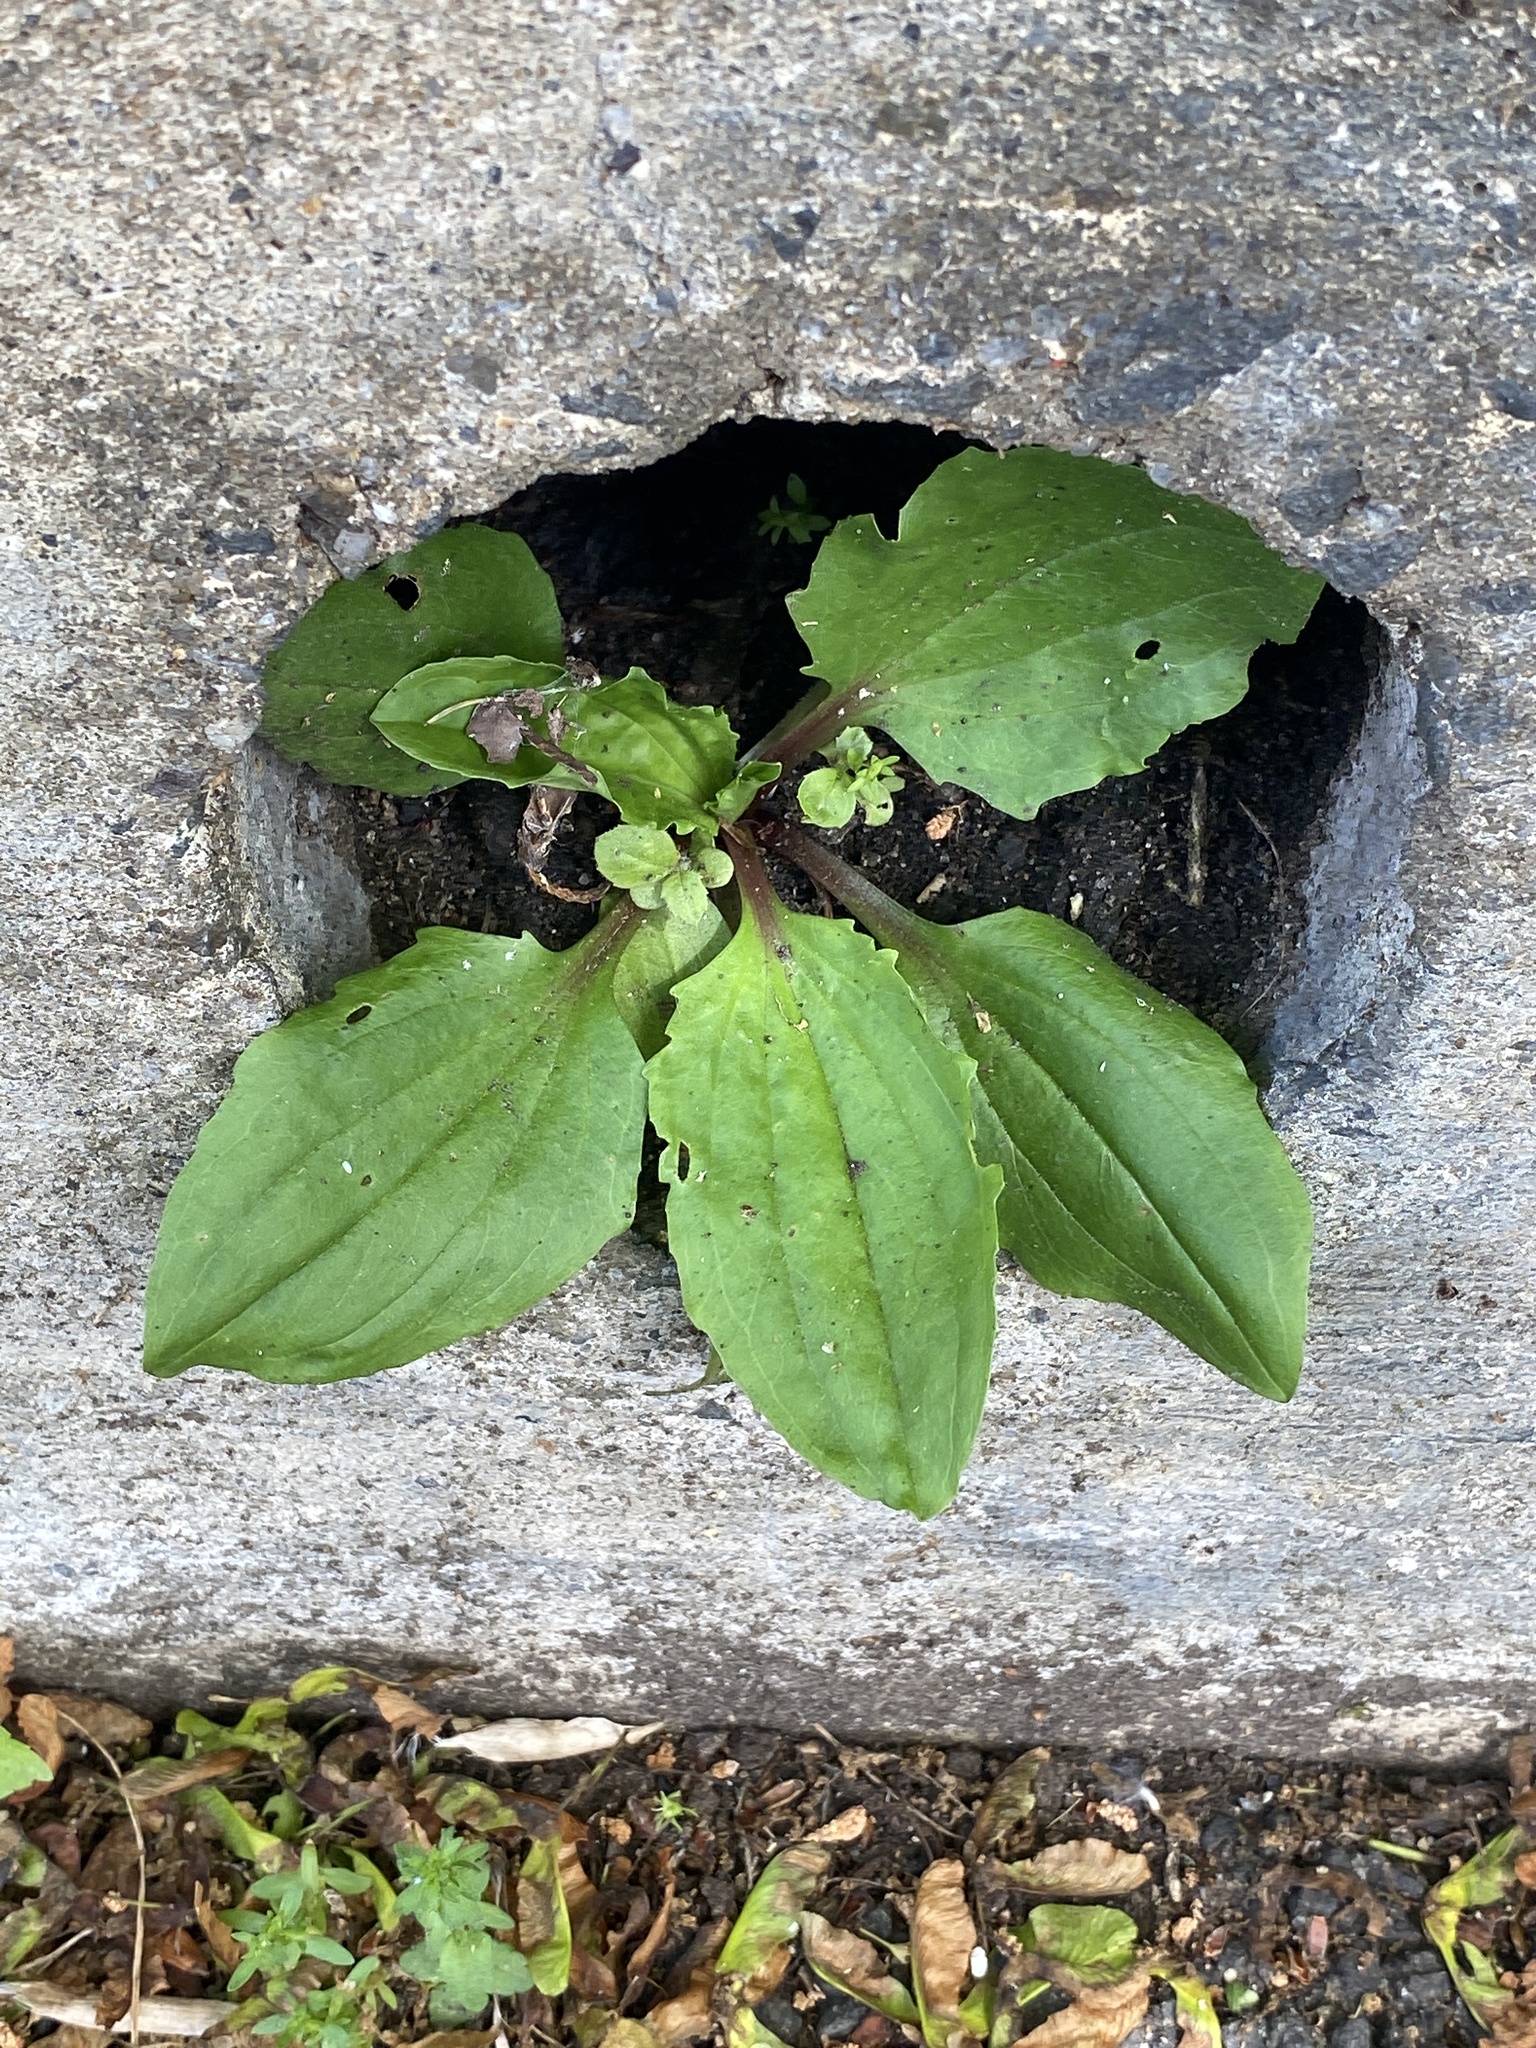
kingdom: Plantae
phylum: Tracheophyta
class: Magnoliopsida
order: Lamiales
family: Plantaginaceae
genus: Plantago
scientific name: Plantago rugelii
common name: American plantain
